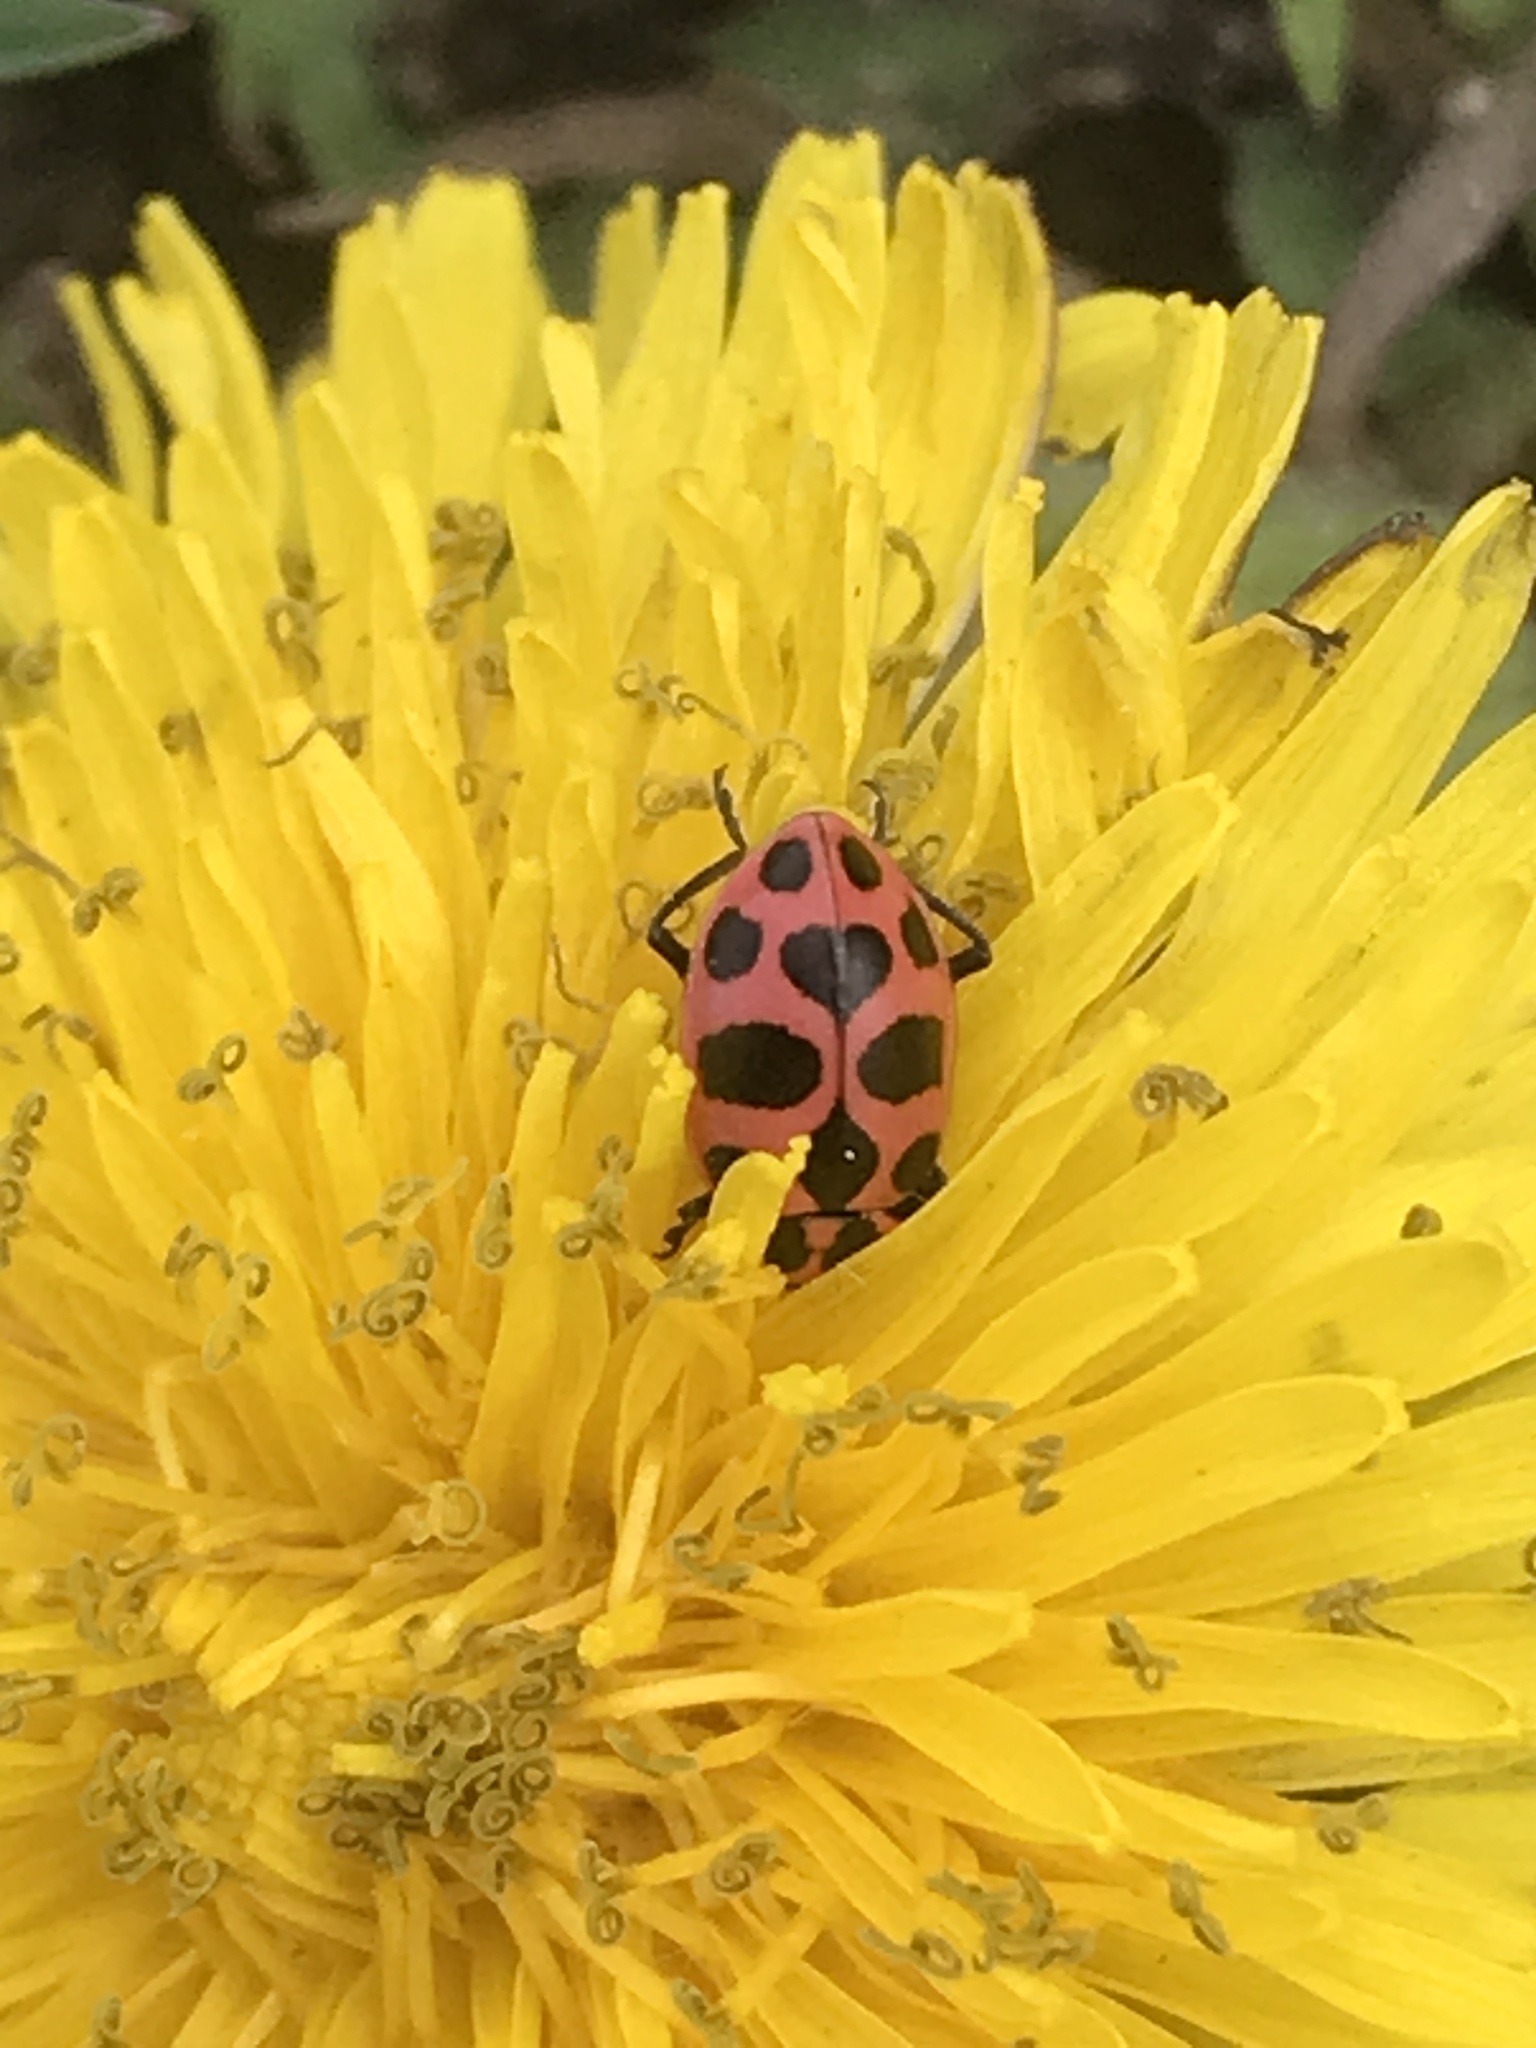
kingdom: Animalia
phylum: Arthropoda
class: Insecta
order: Coleoptera
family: Coccinellidae
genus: Coleomegilla
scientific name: Coleomegilla maculata
